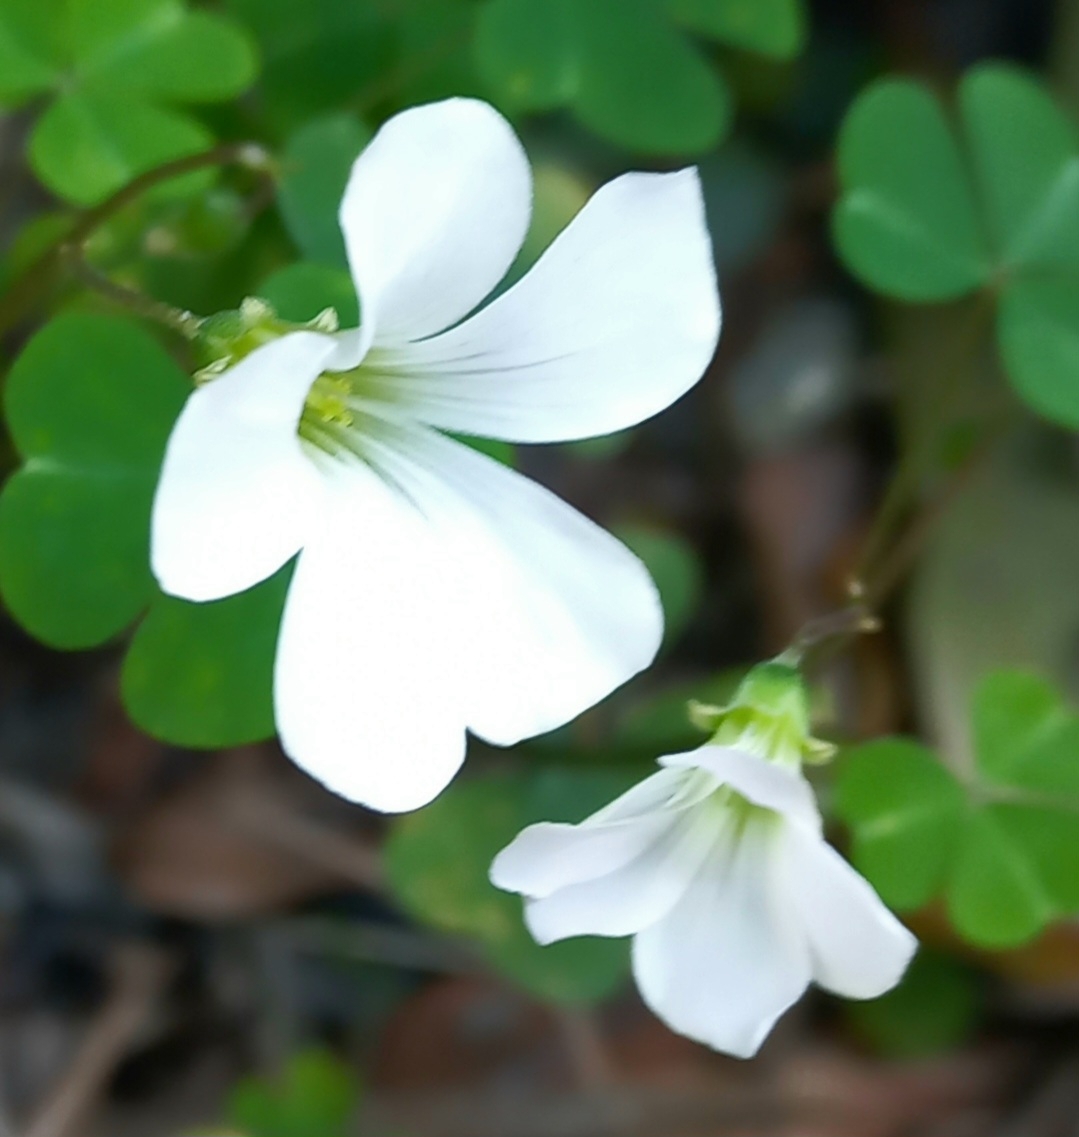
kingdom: Plantae
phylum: Tracheophyta
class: Magnoliopsida
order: Oxalidales
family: Oxalidaceae
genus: Oxalis
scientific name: Oxalis incarnata
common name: Pale pink-sorrel
